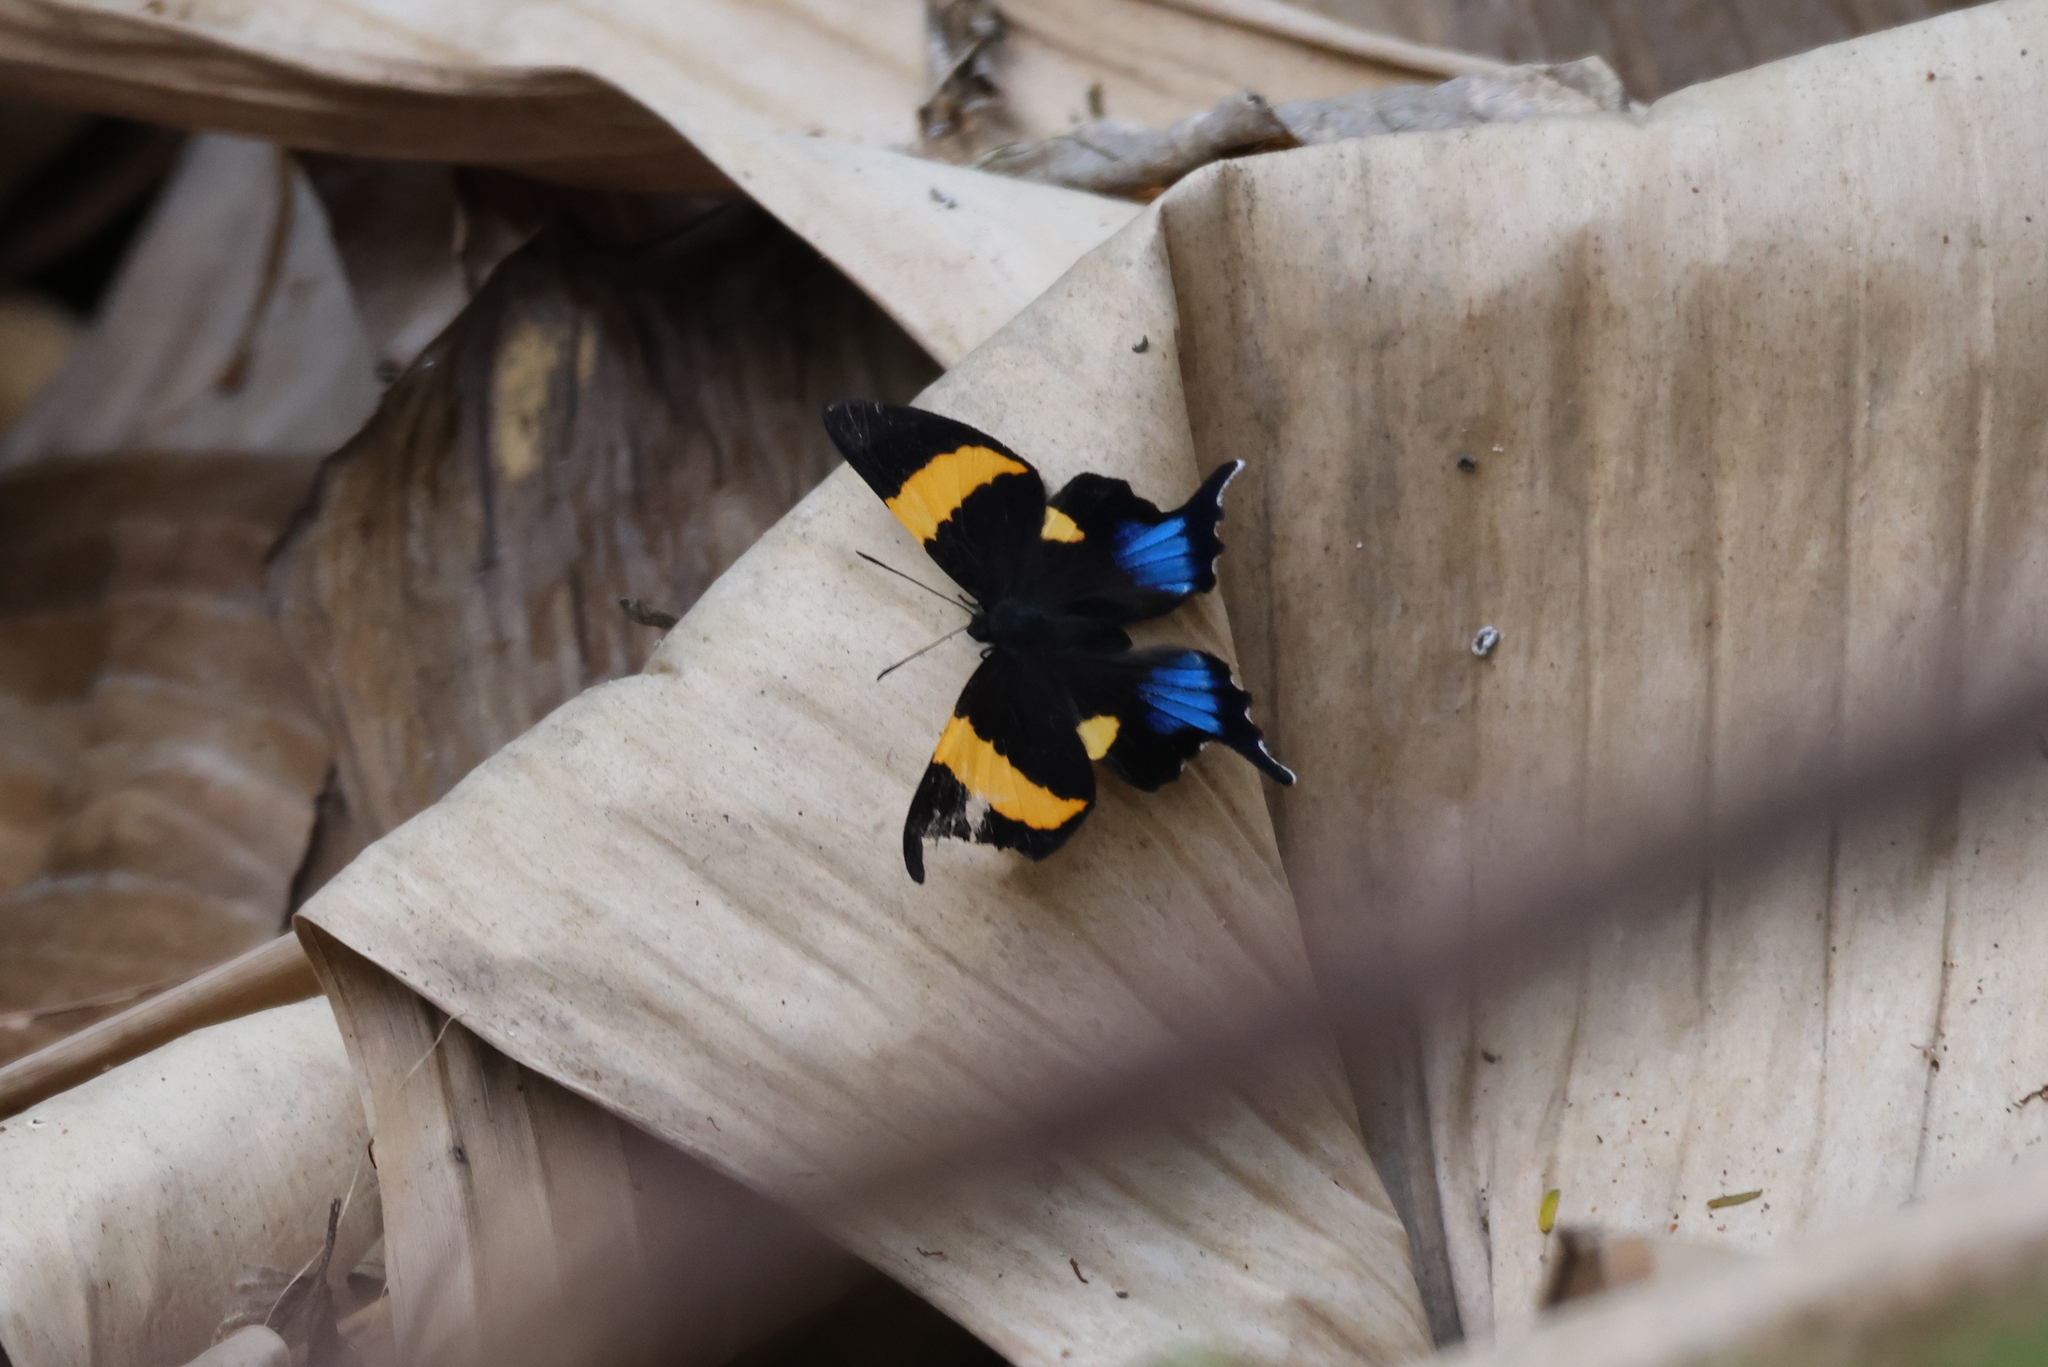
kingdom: Animalia
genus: Ancyluris
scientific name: Ancyluris inca
